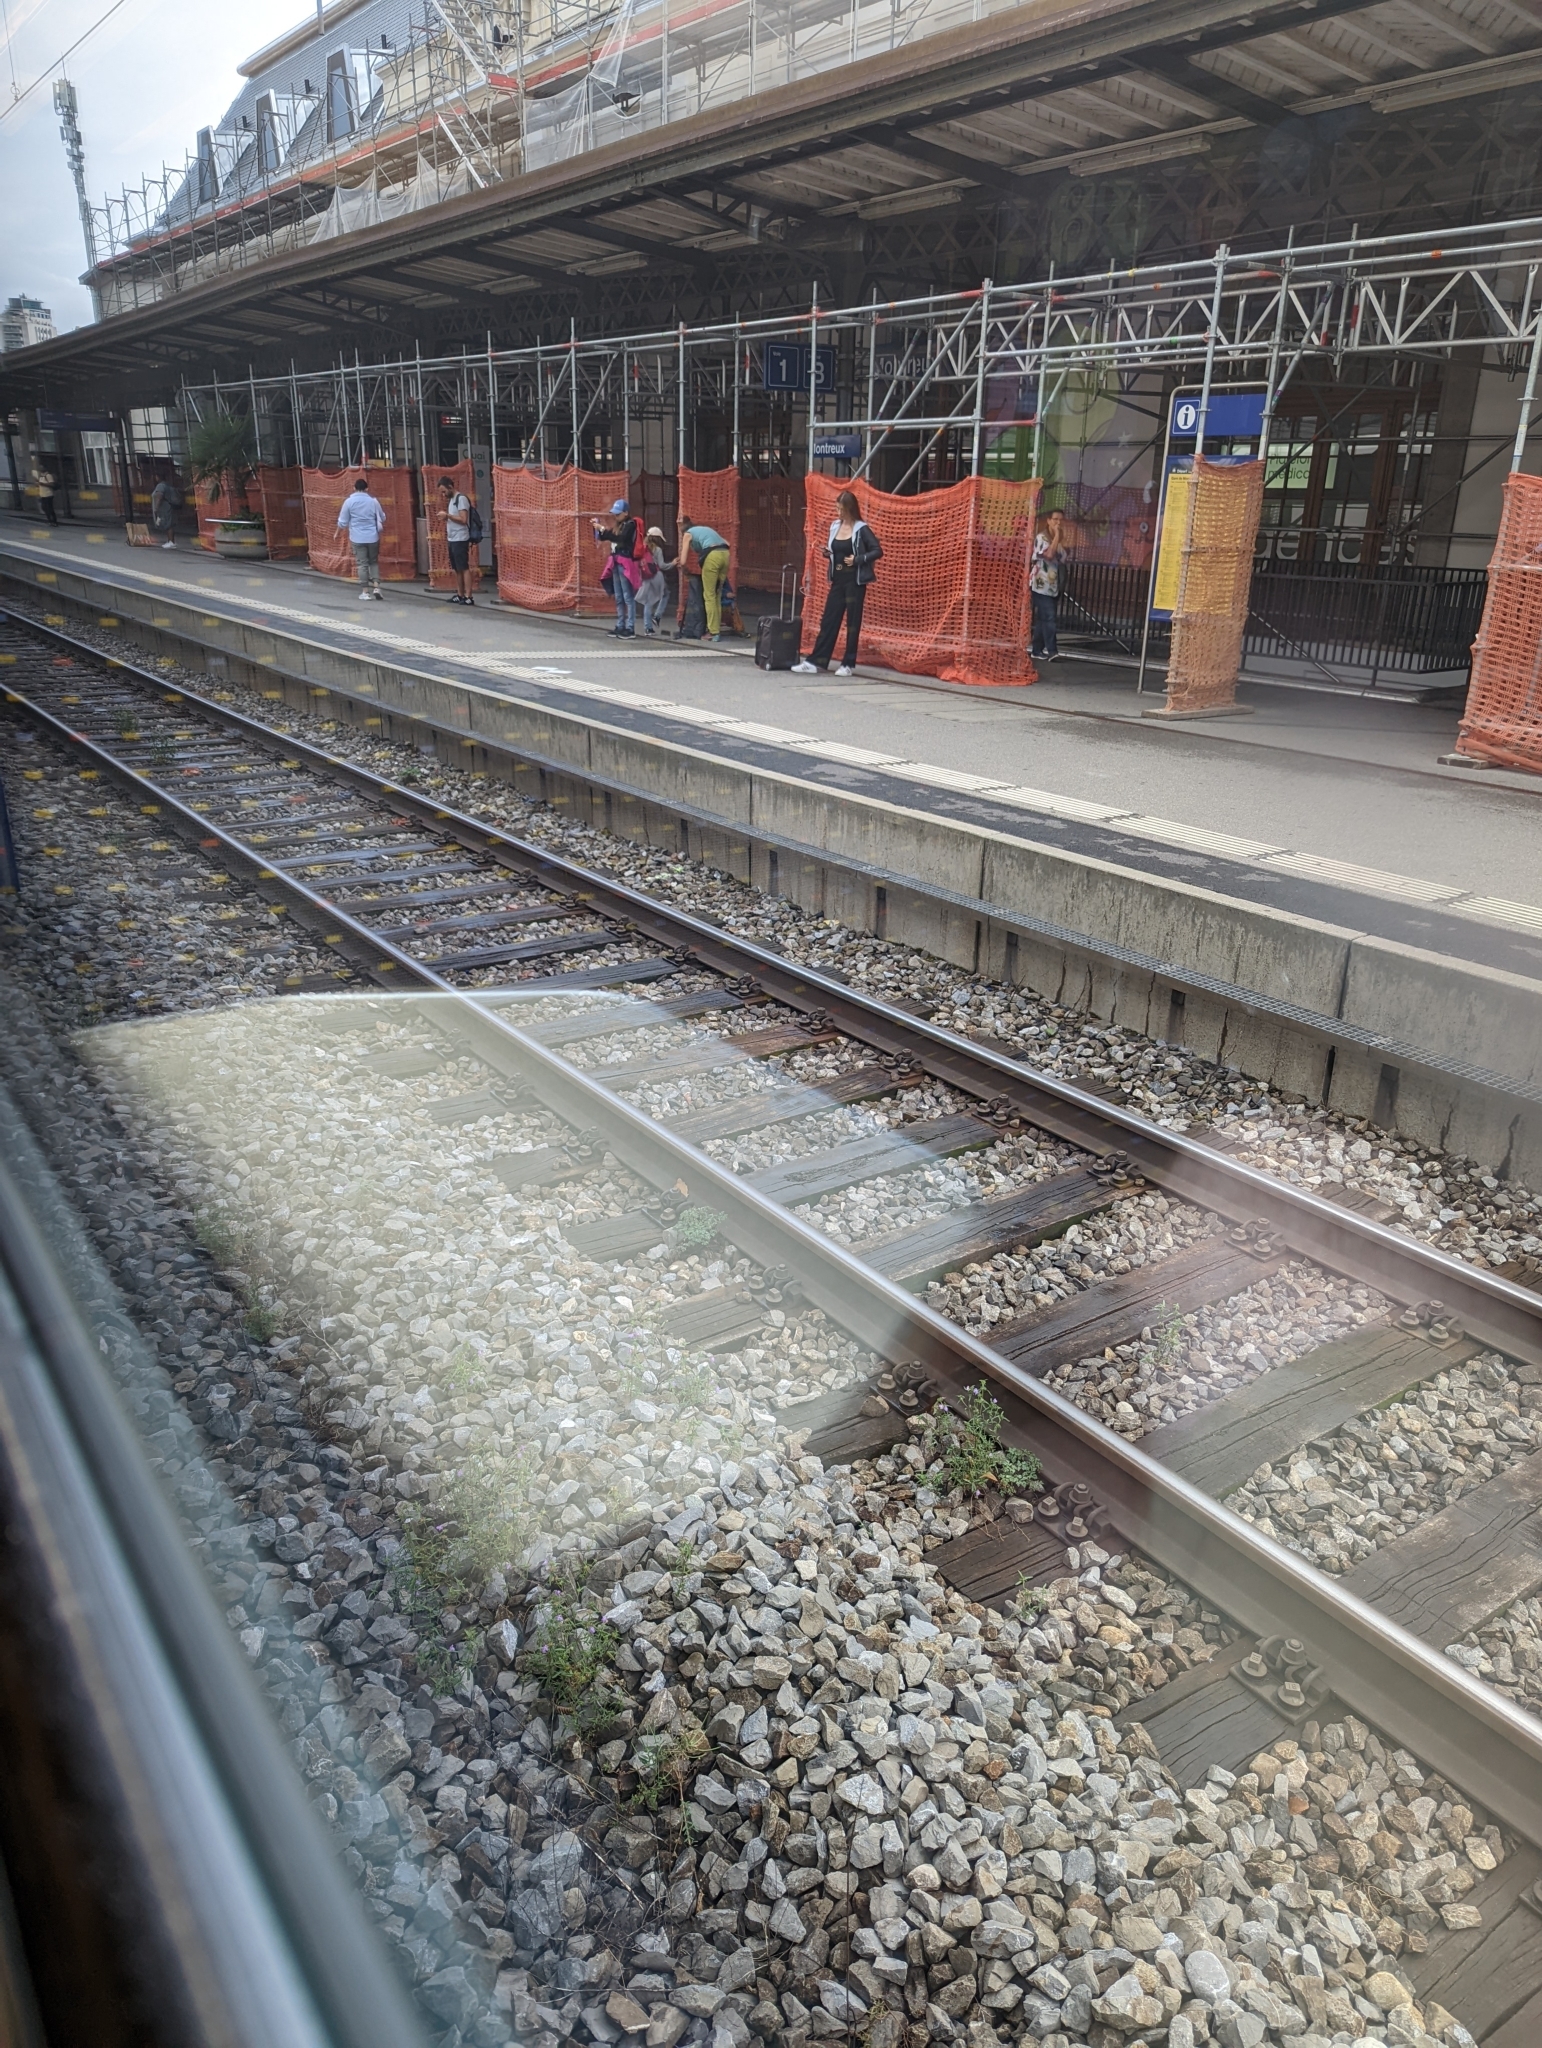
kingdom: Plantae
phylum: Tracheophyta
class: Magnoliopsida
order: Lamiales
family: Lamiaceae
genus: Galeopsis
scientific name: Galeopsis angustifolia
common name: Red hemp-nettle
